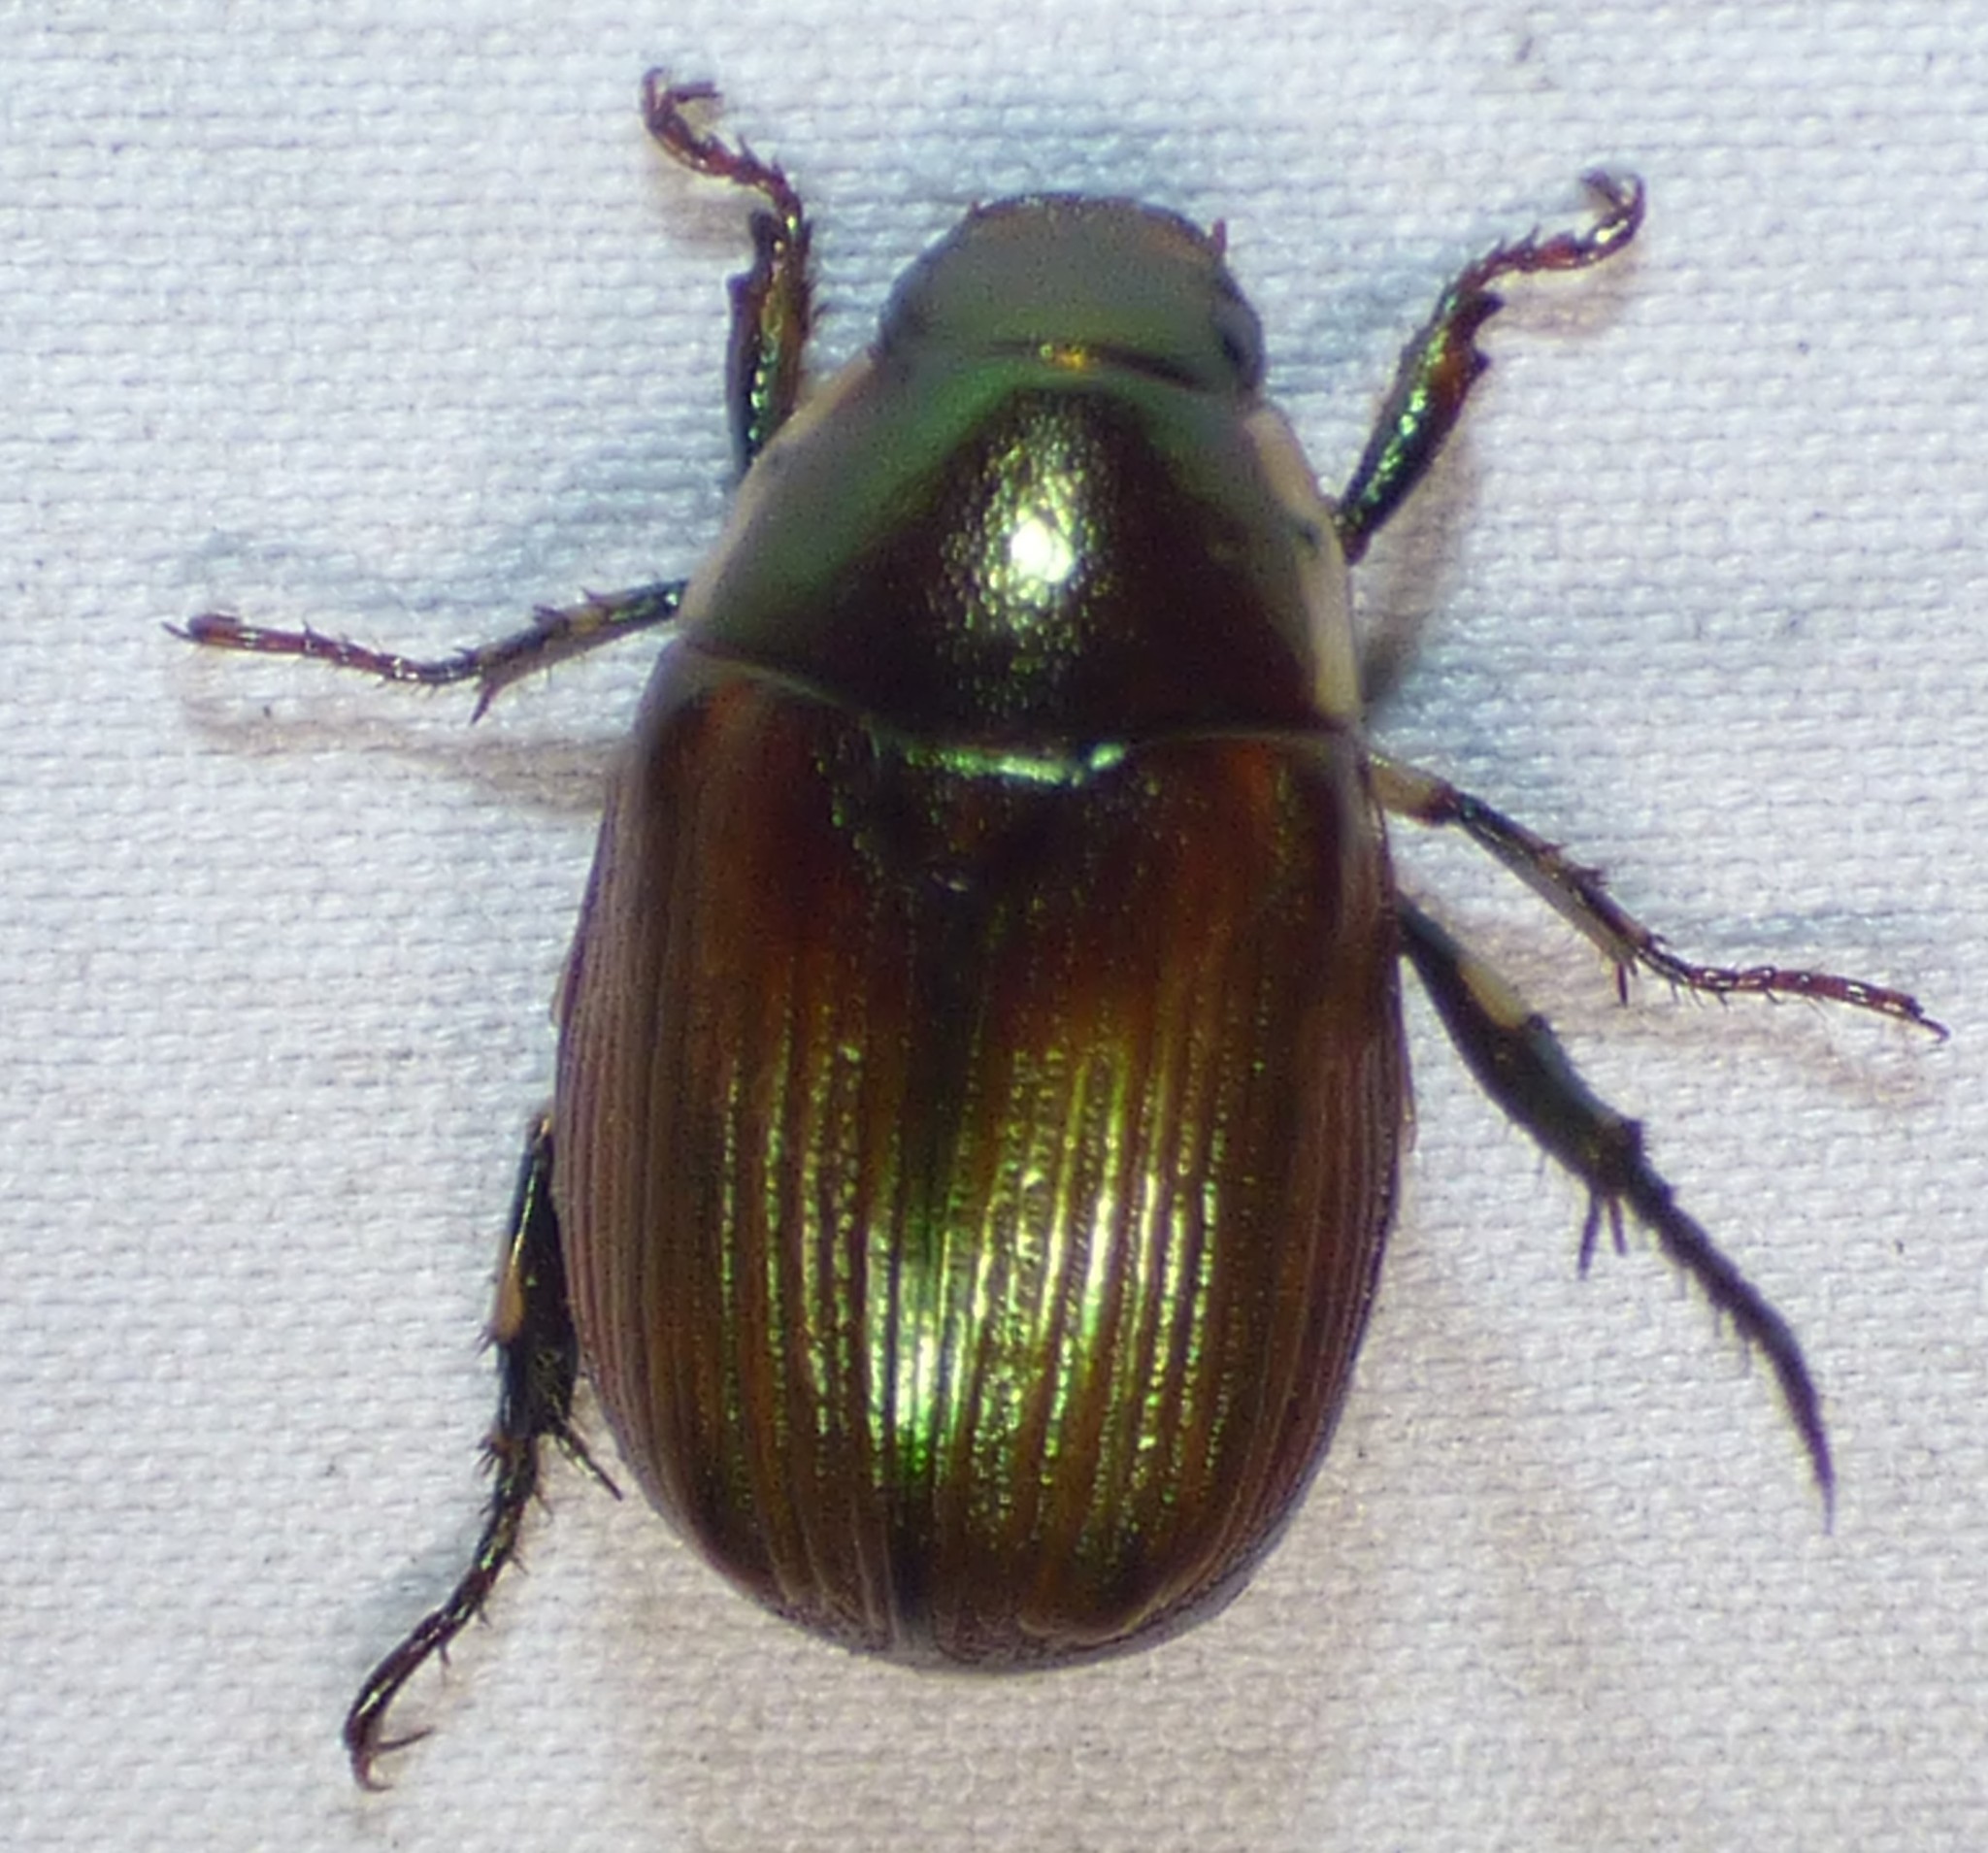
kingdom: Animalia
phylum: Arthropoda
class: Insecta
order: Coleoptera
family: Scarabaeidae
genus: Callistethus
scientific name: Callistethus marginatus
